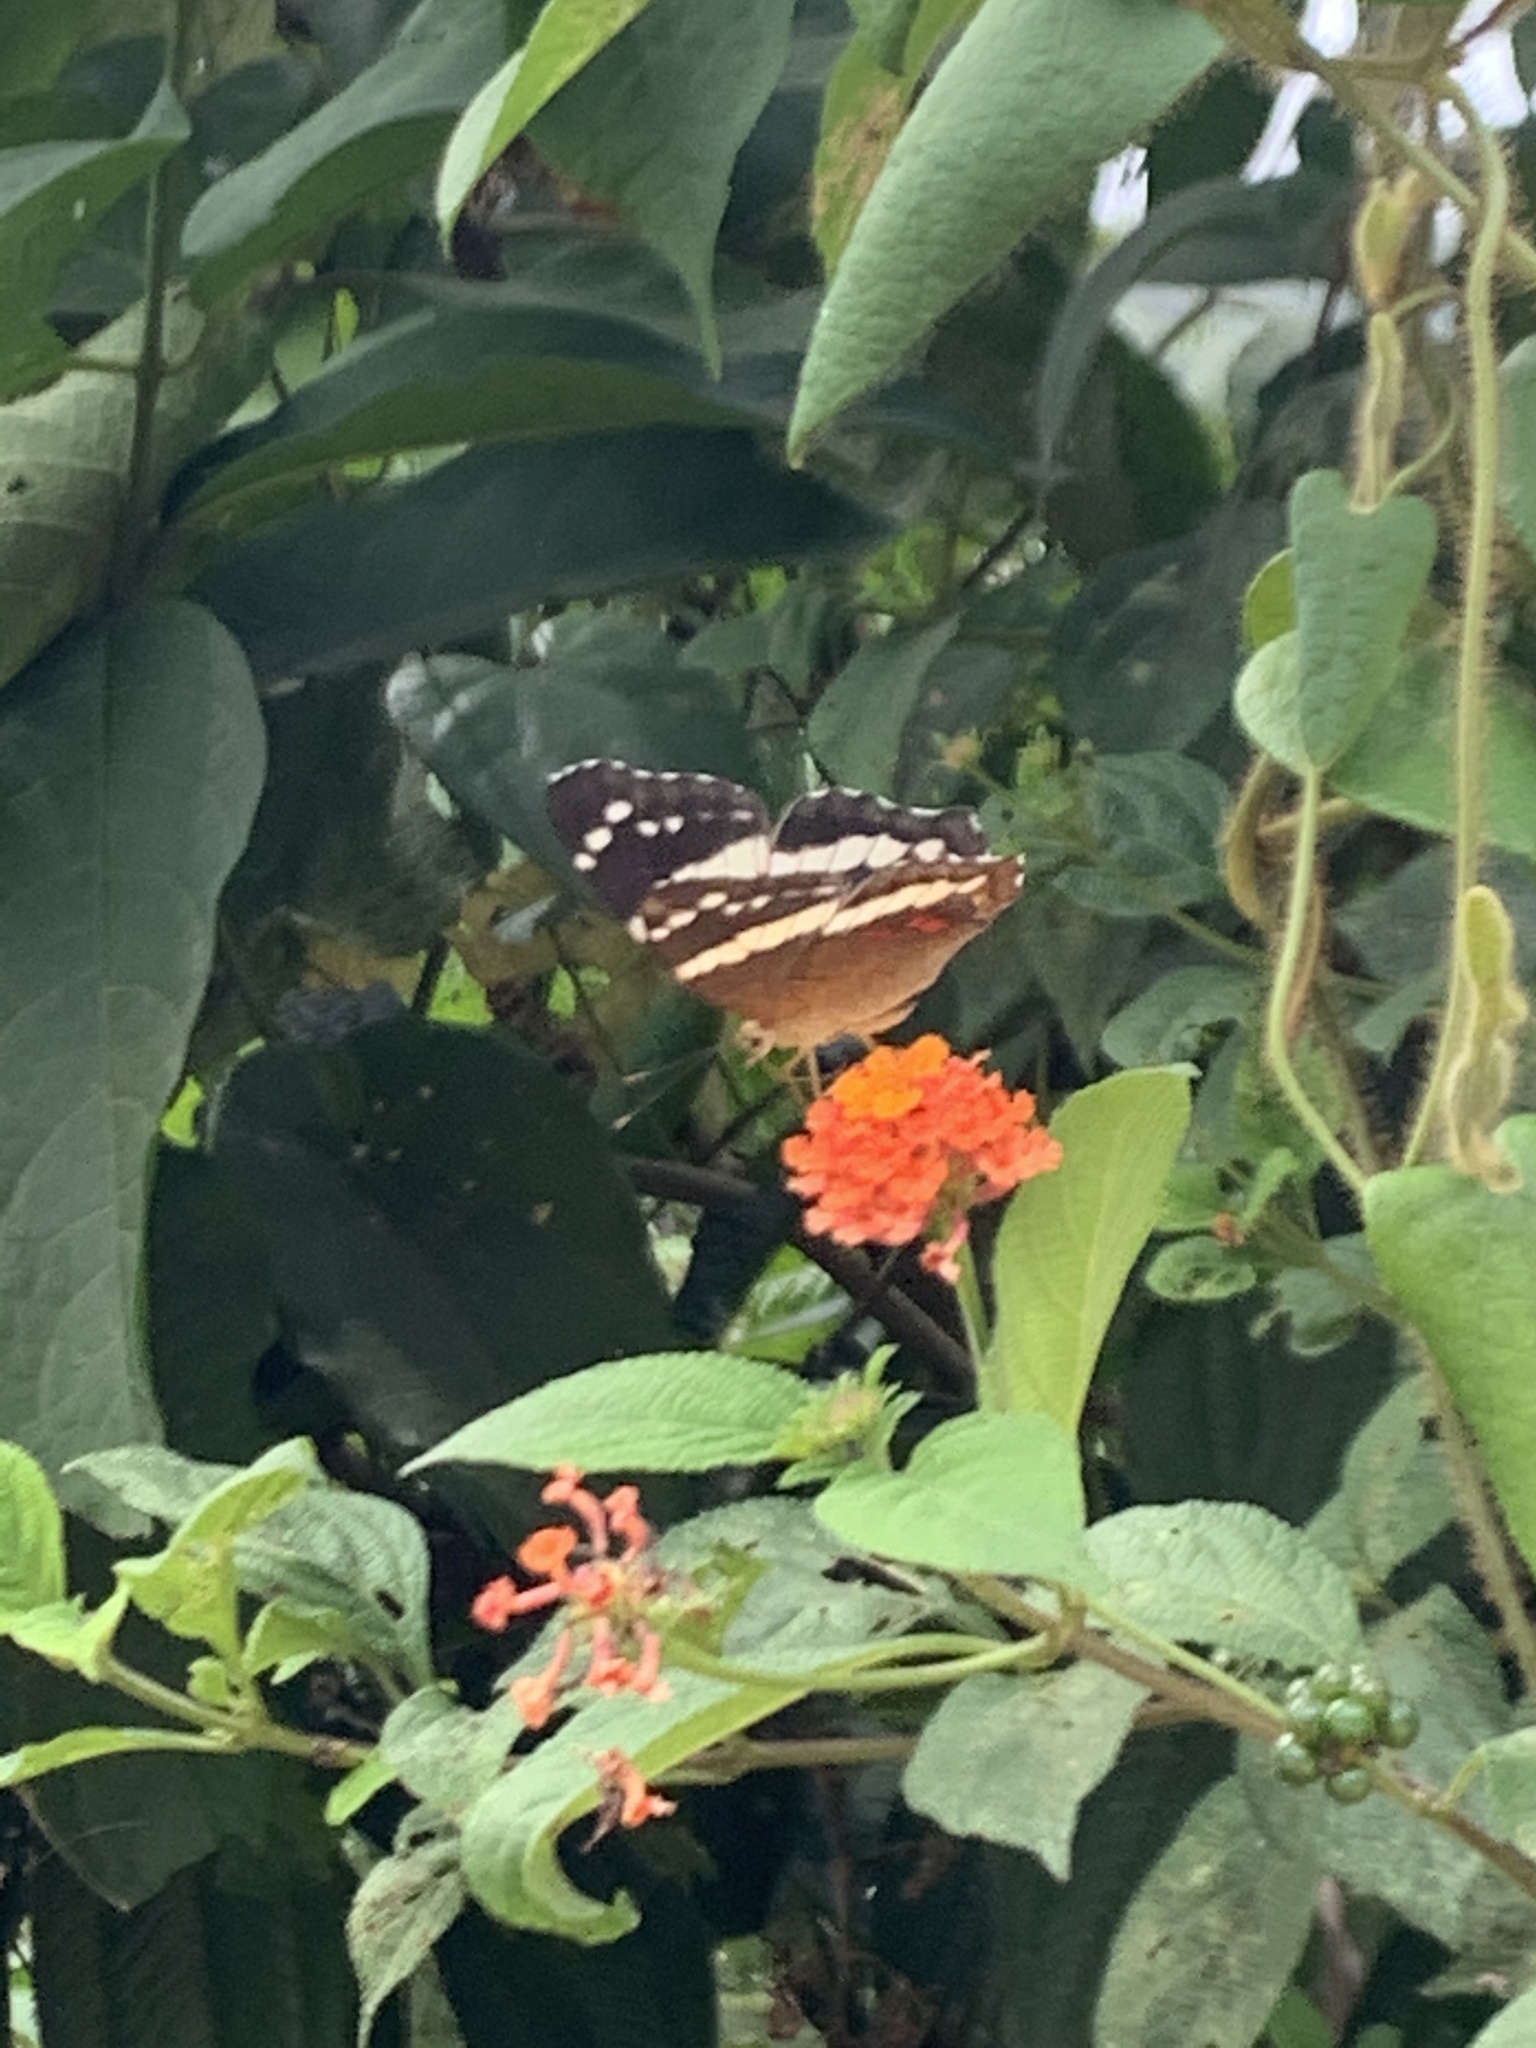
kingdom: Animalia
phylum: Arthropoda
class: Insecta
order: Lepidoptera
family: Nymphalidae
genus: Anartia
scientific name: Anartia fatima
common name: Banded peacock
